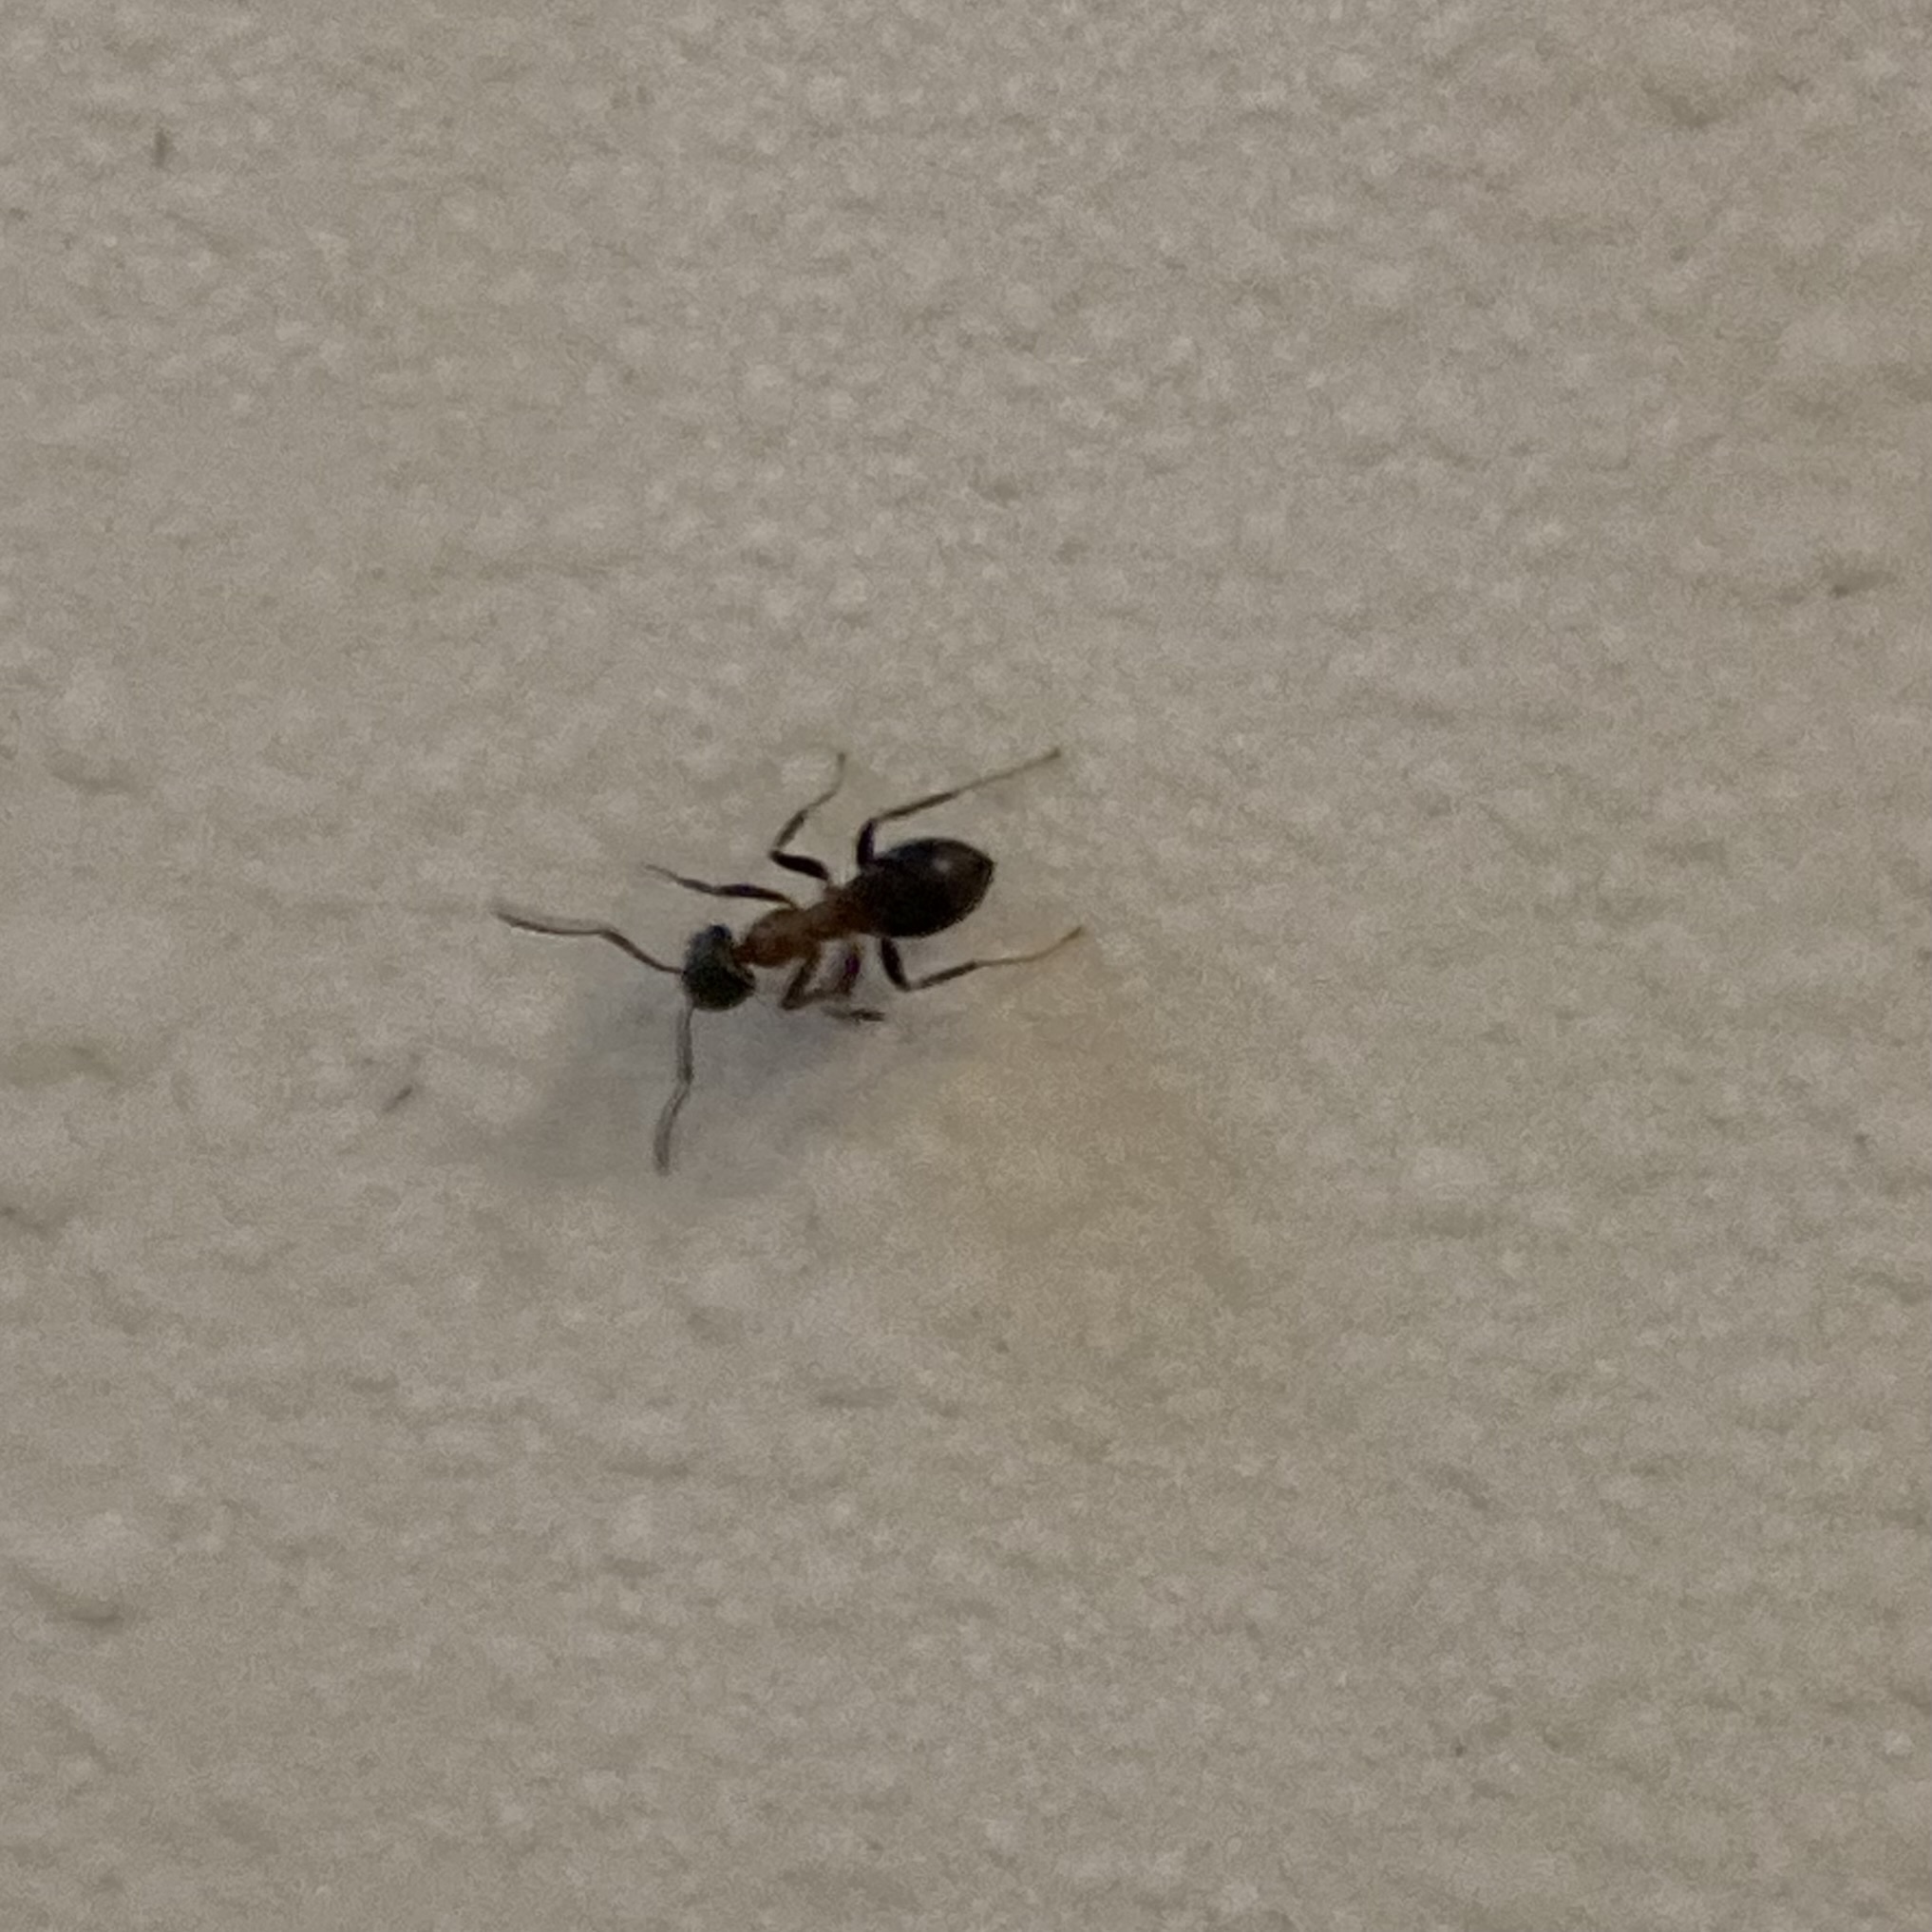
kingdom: Animalia
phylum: Arthropoda
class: Insecta
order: Hymenoptera
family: Formicidae
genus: Lasius
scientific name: Lasius emarginatus
